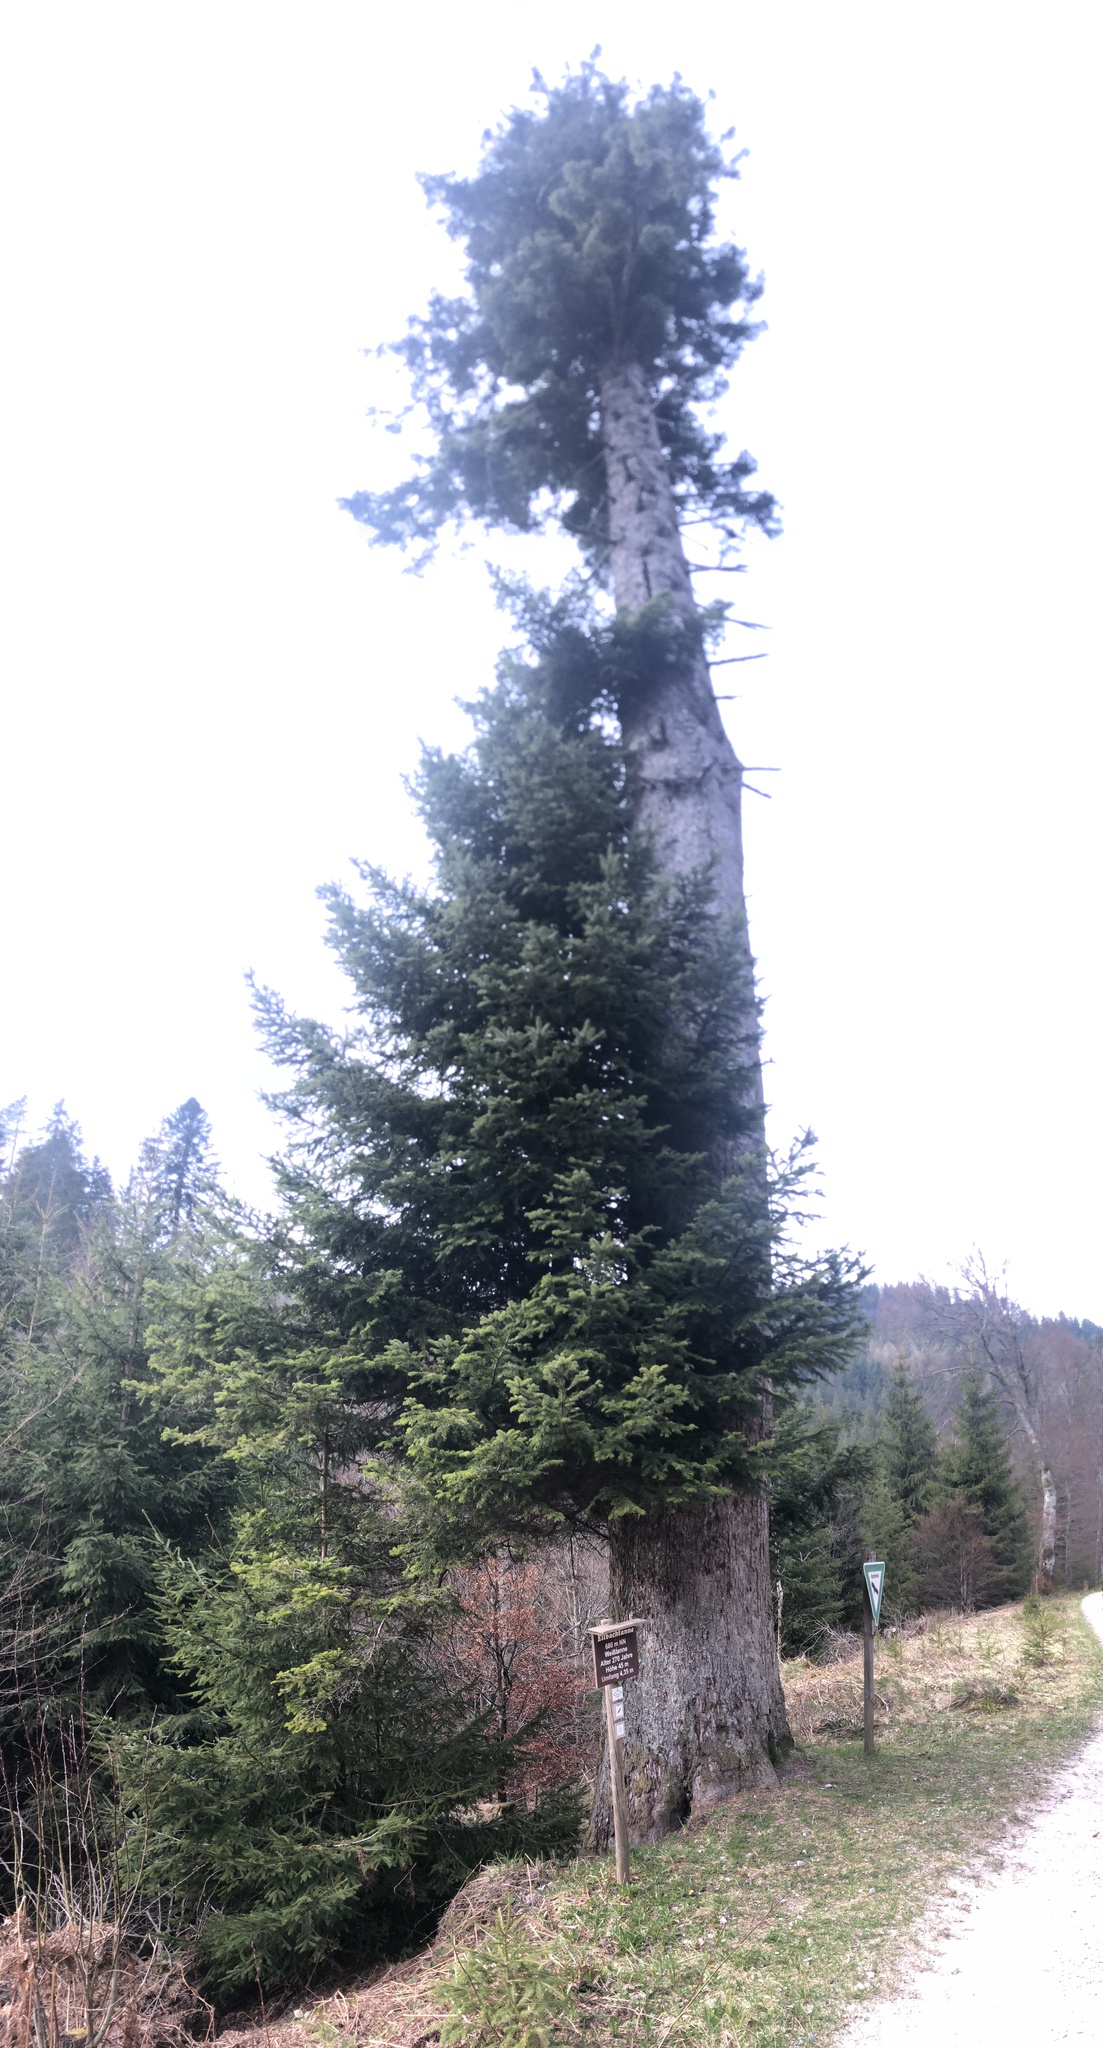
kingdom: Plantae
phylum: Tracheophyta
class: Pinopsida
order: Pinales
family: Pinaceae
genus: Abies
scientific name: Abies alba
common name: Silver fir
